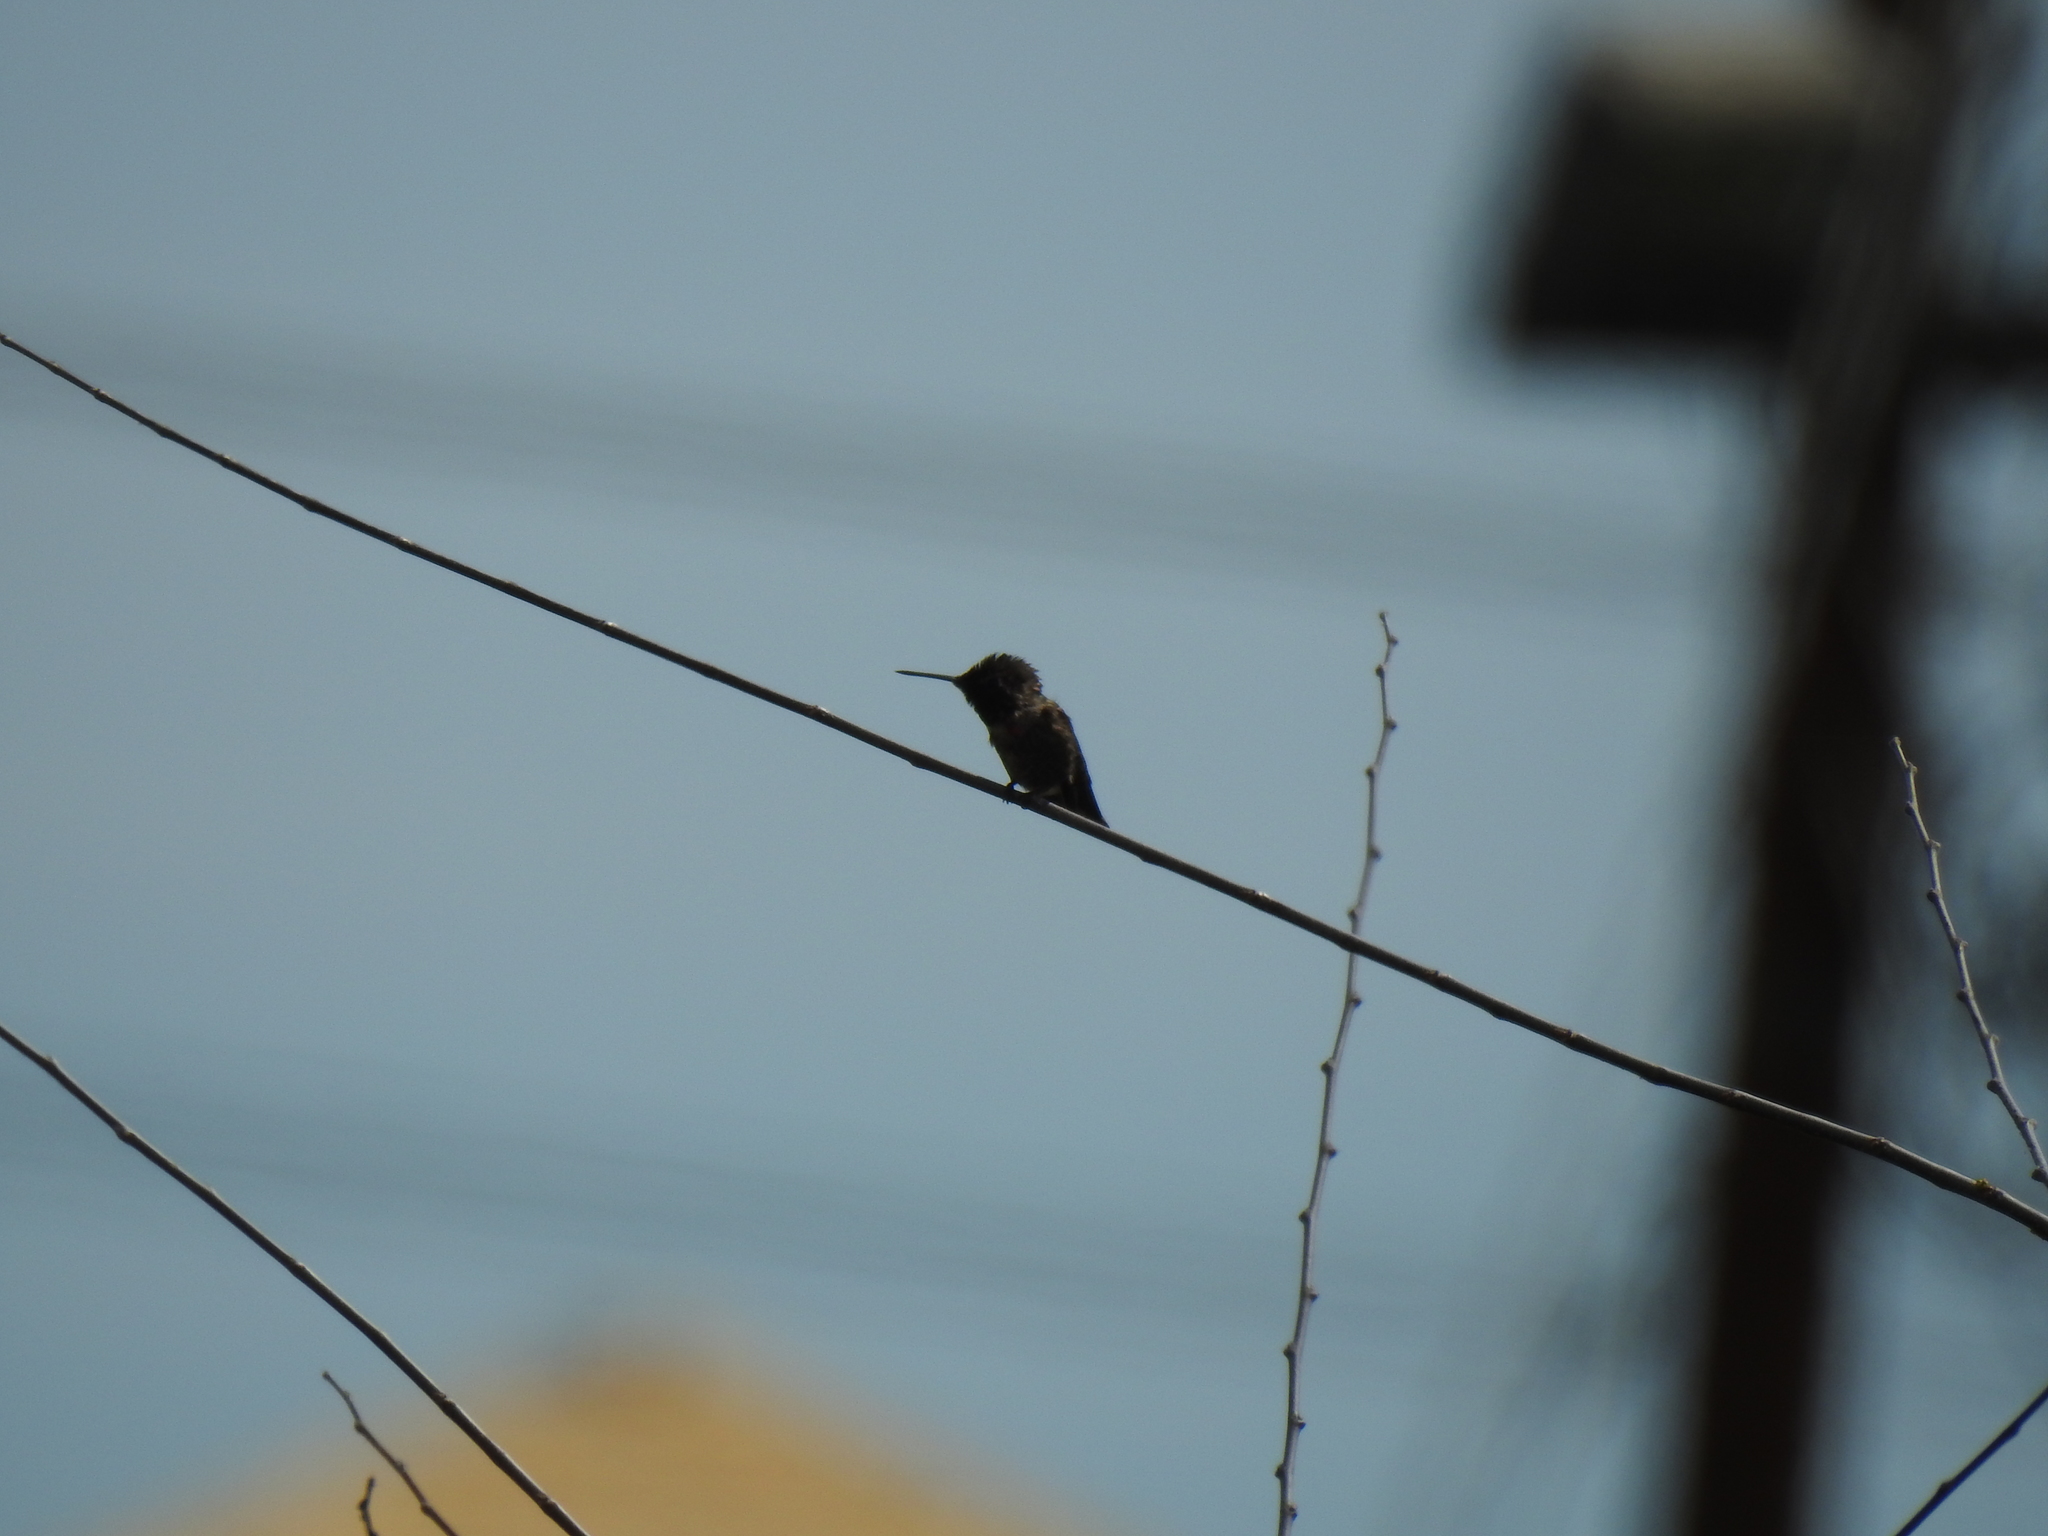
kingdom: Animalia
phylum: Chordata
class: Aves
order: Apodiformes
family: Trochilidae
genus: Calypte
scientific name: Calypte anna
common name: Anna's hummingbird
